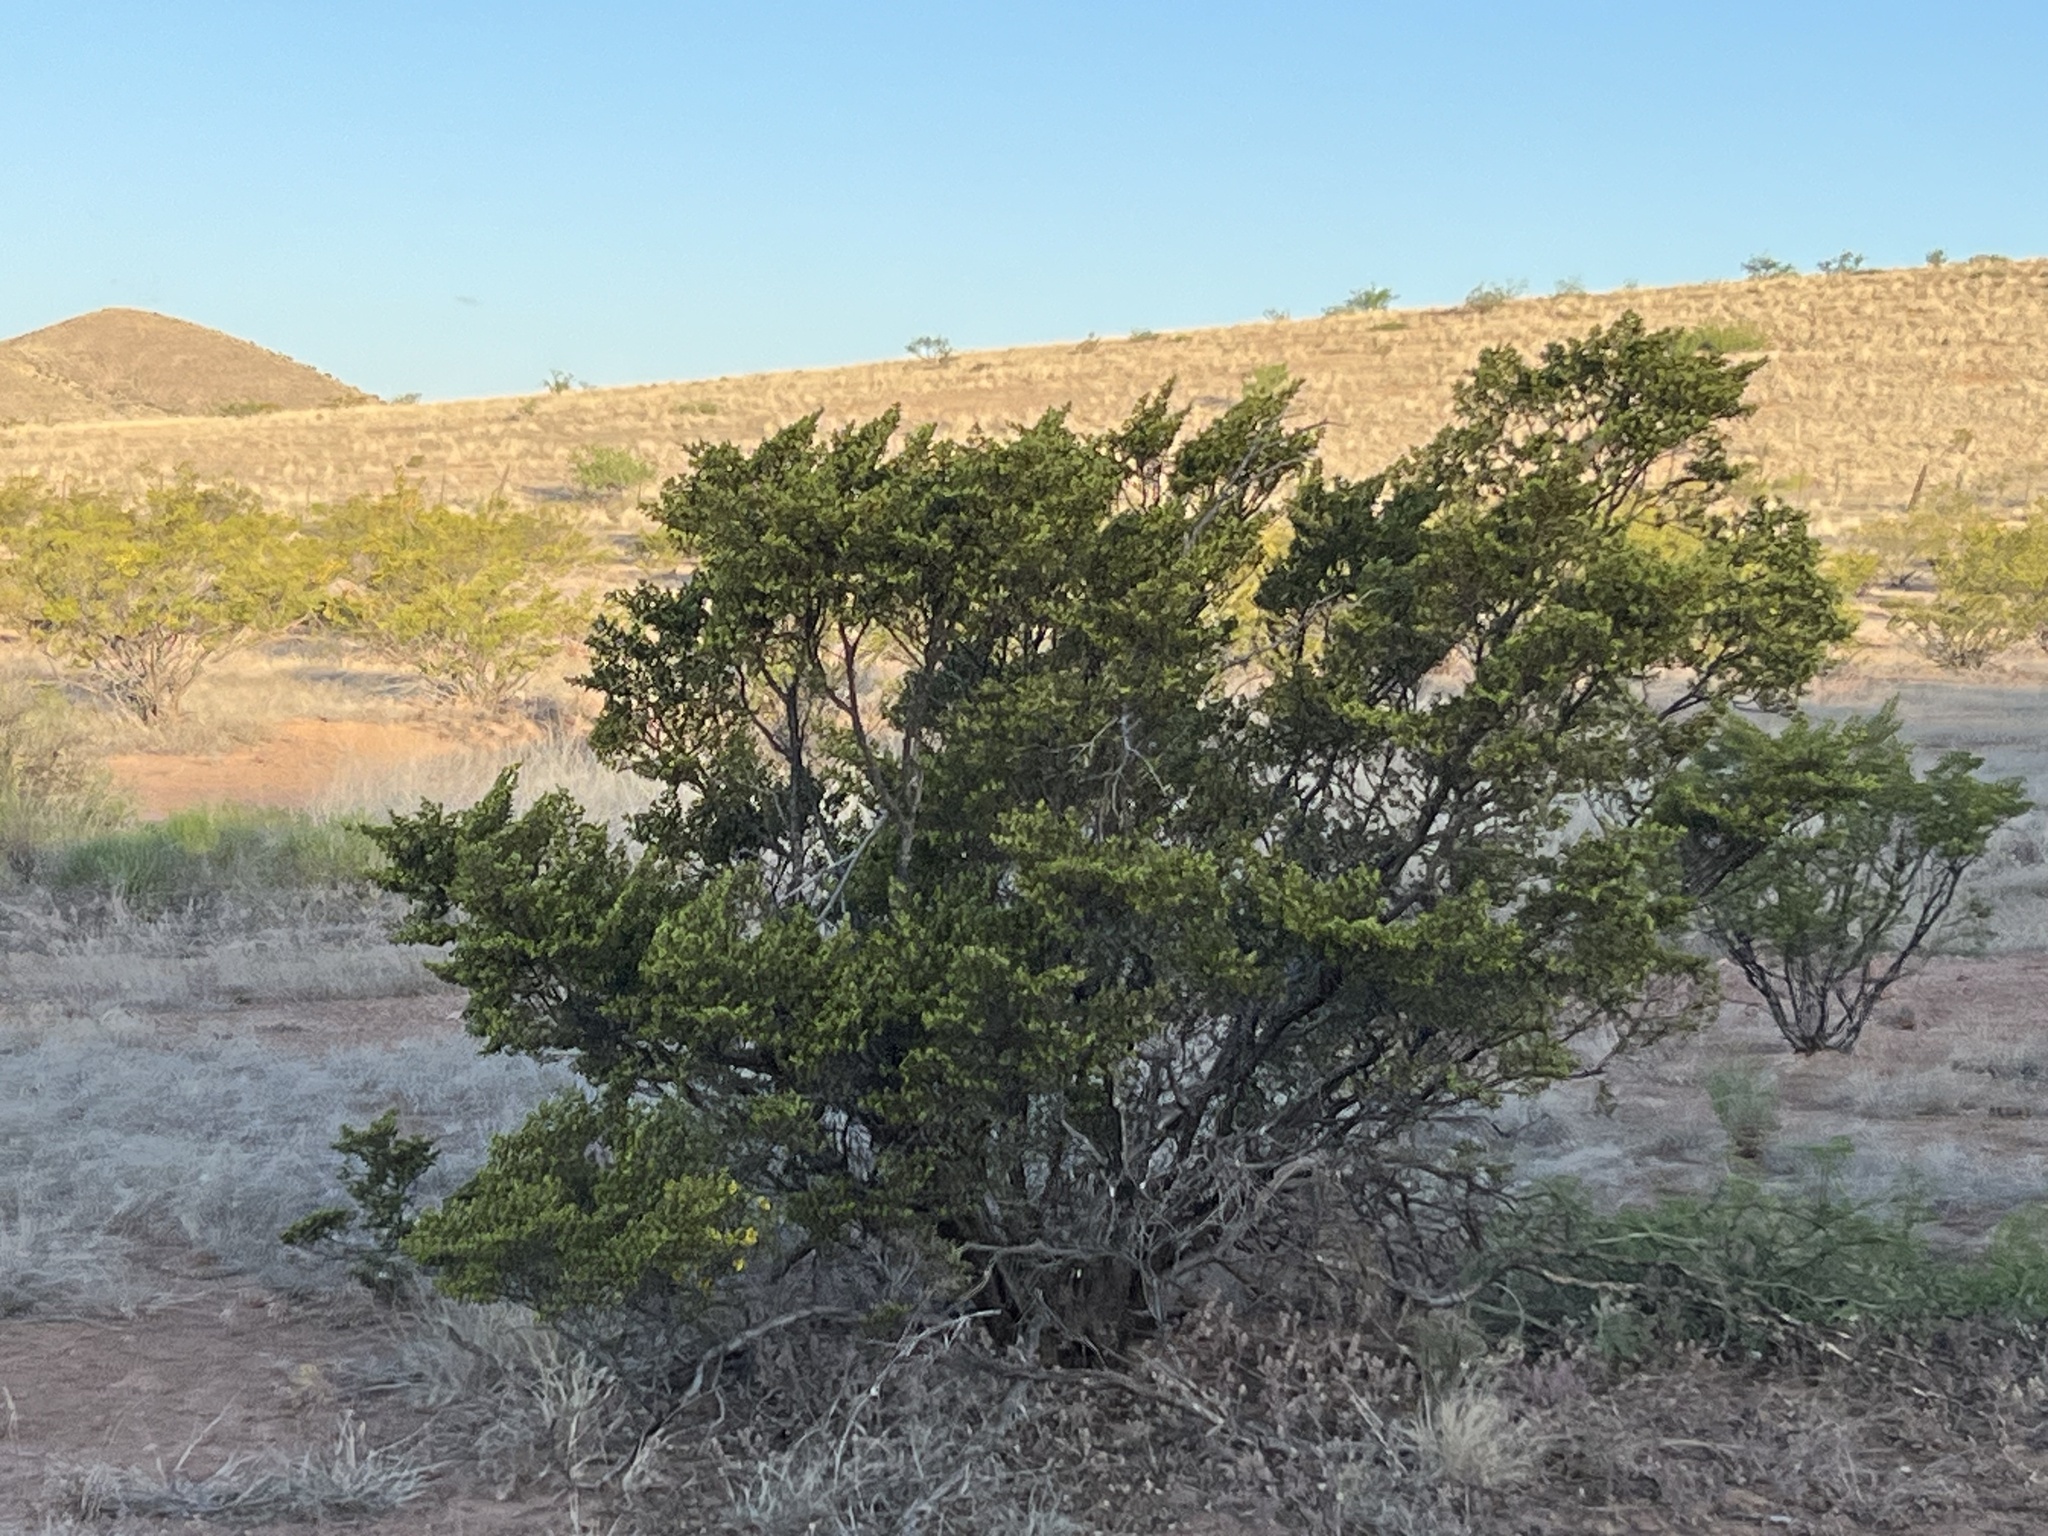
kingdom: Plantae
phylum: Tracheophyta
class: Magnoliopsida
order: Zygophyllales
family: Zygophyllaceae
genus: Larrea
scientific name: Larrea tridentata
